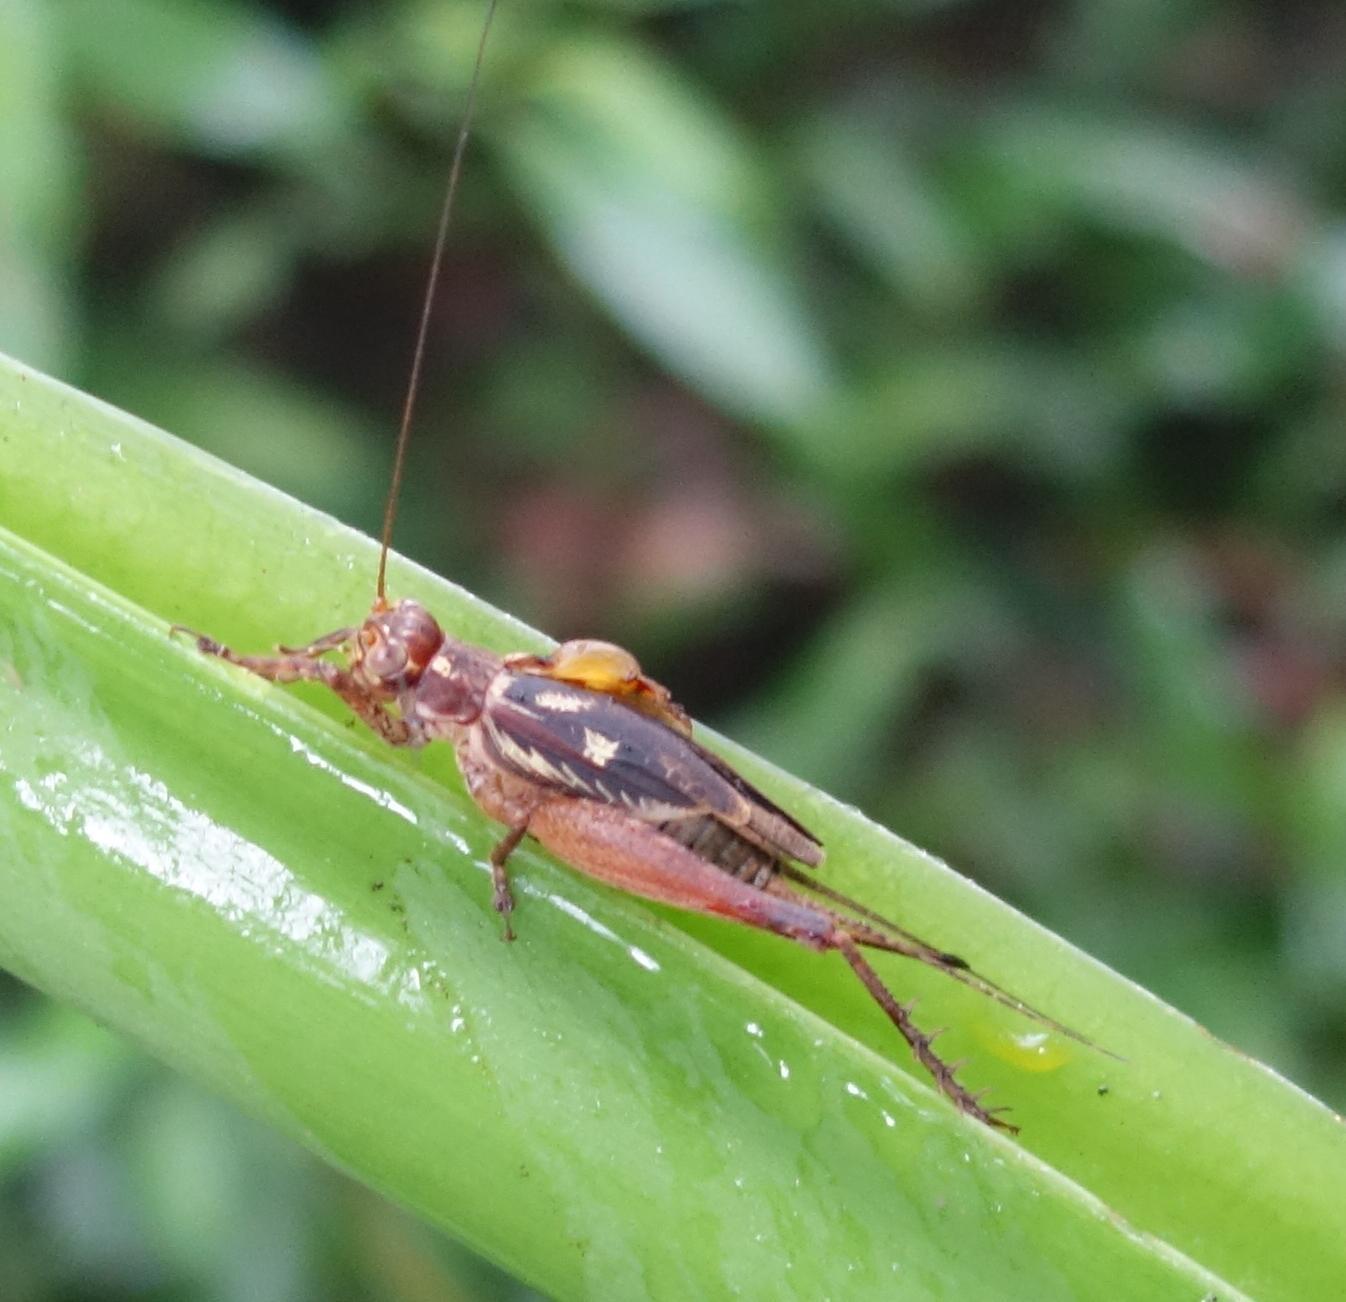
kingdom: Animalia
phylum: Arthropoda
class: Insecta
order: Orthoptera
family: Gryllidae
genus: Cardiodactylus
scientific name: Cardiodactylus guttulus
